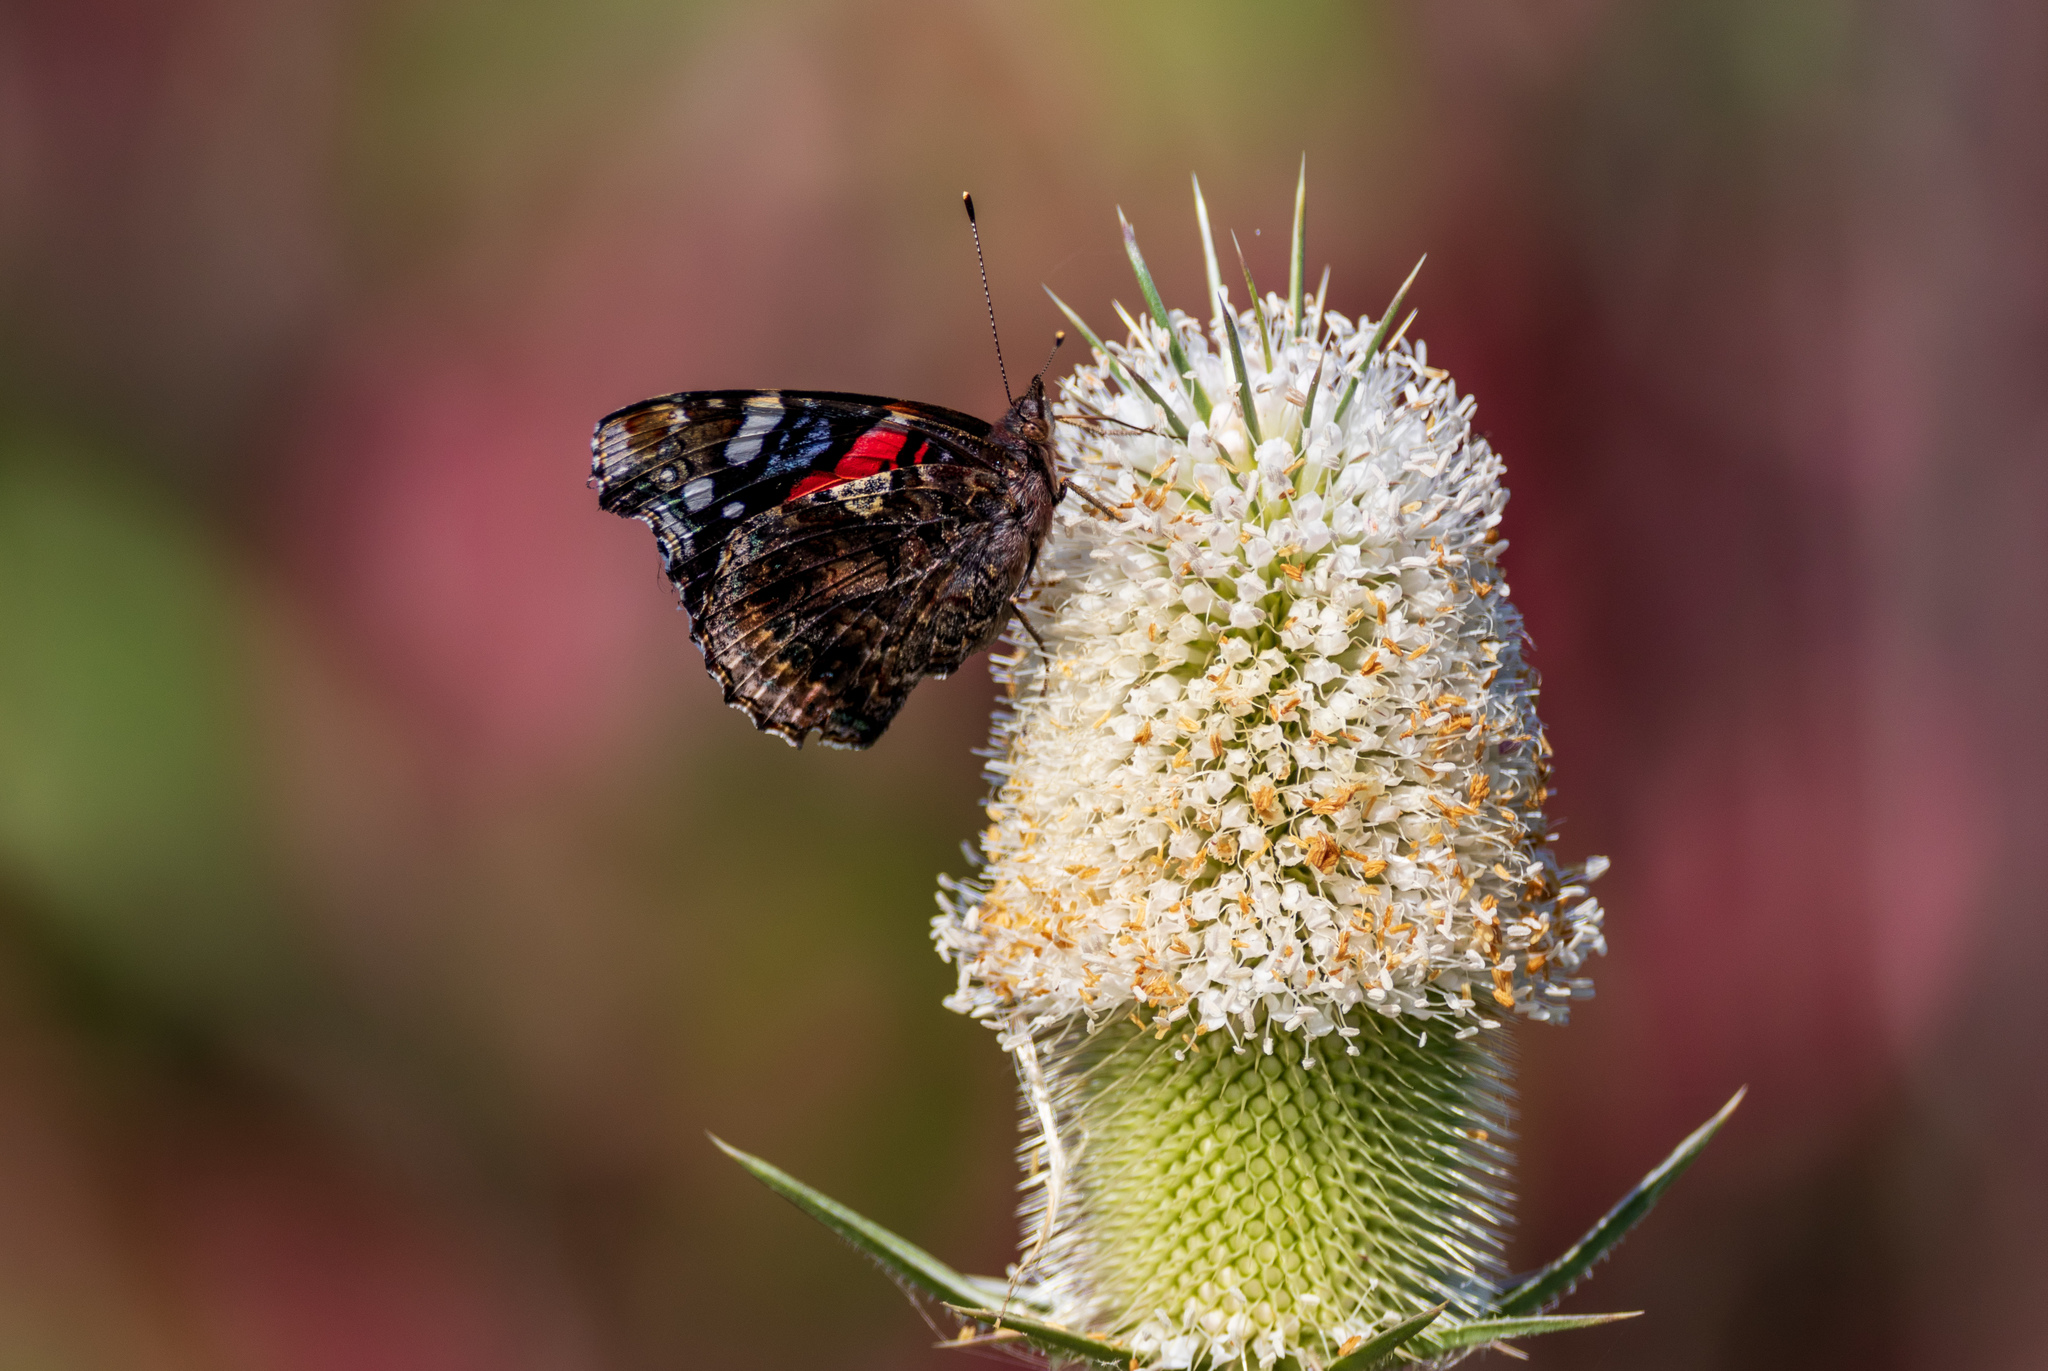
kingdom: Animalia
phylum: Arthropoda
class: Insecta
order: Lepidoptera
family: Nymphalidae
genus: Vanessa
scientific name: Vanessa atalanta
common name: Red admiral
